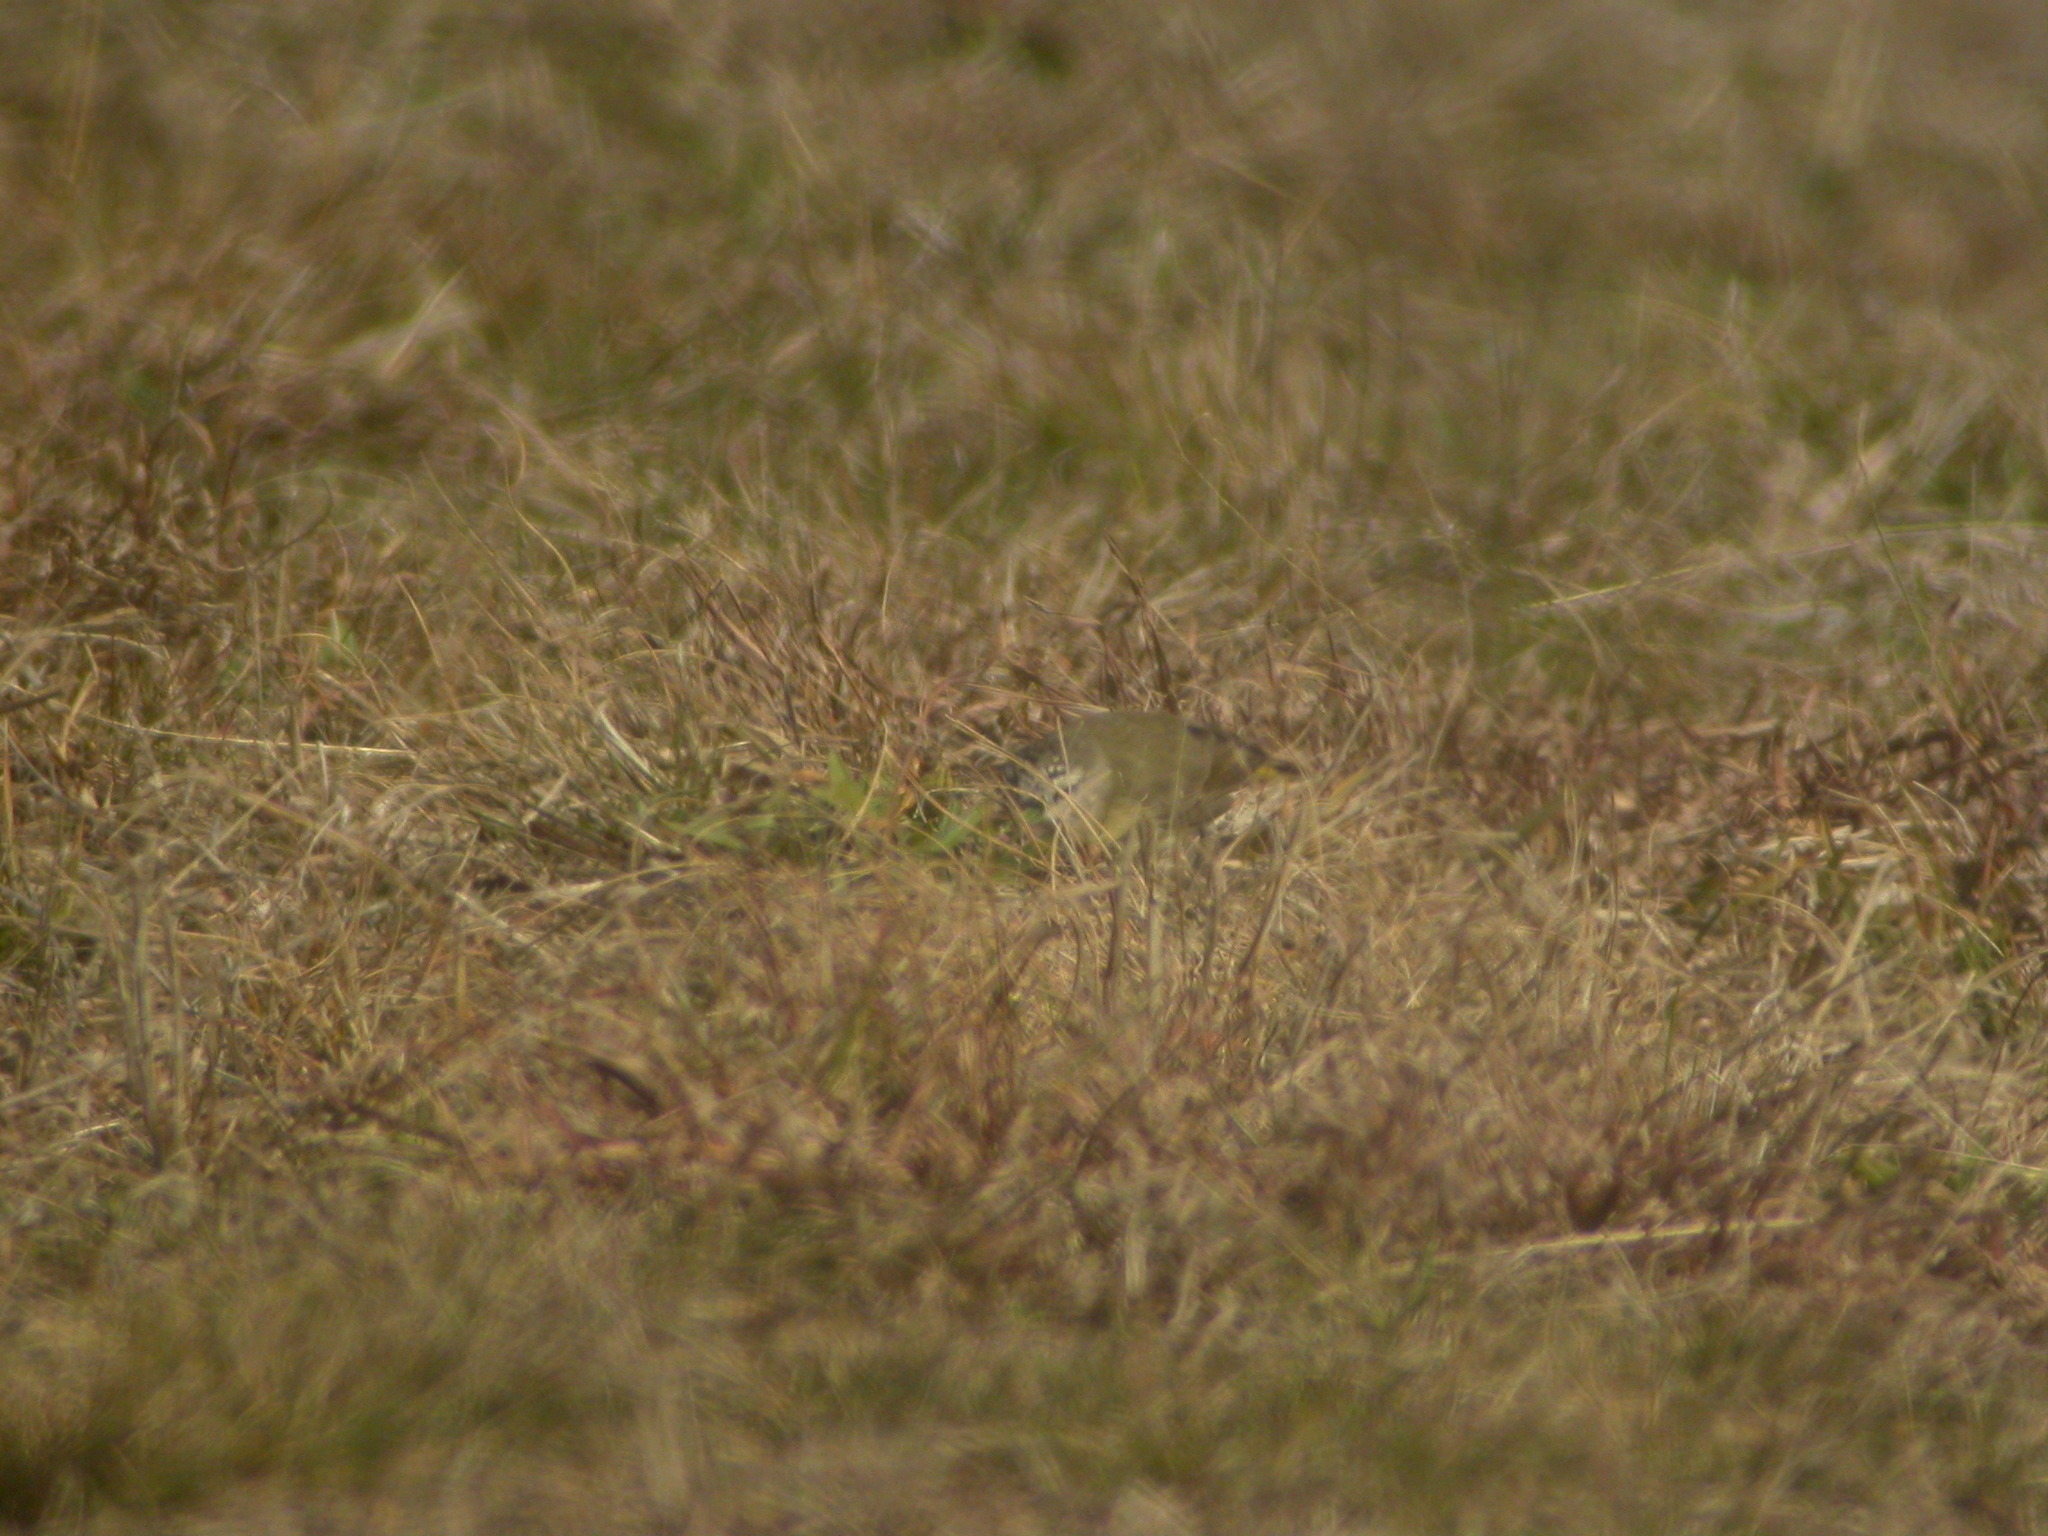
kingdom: Animalia
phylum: Chordata
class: Aves
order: Passeriformes
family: Acanthizidae
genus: Acanthiza
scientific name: Acanthiza chrysorrhoa
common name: Yellow-rumped thornbill
